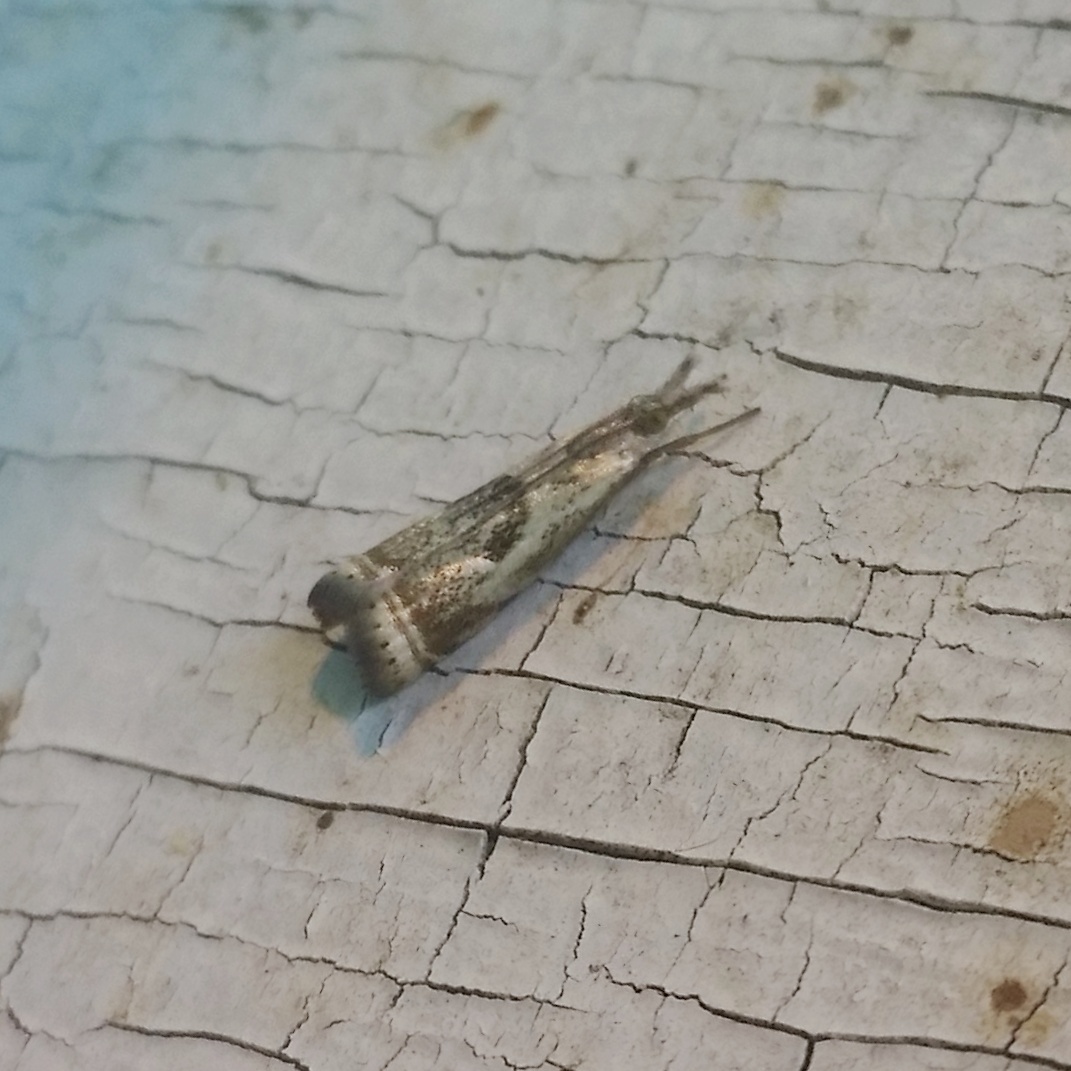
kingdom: Animalia
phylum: Arthropoda
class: Insecta
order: Lepidoptera
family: Crambidae
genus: Microcrambus
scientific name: Microcrambus elegans
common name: Elegant grass-veneer
